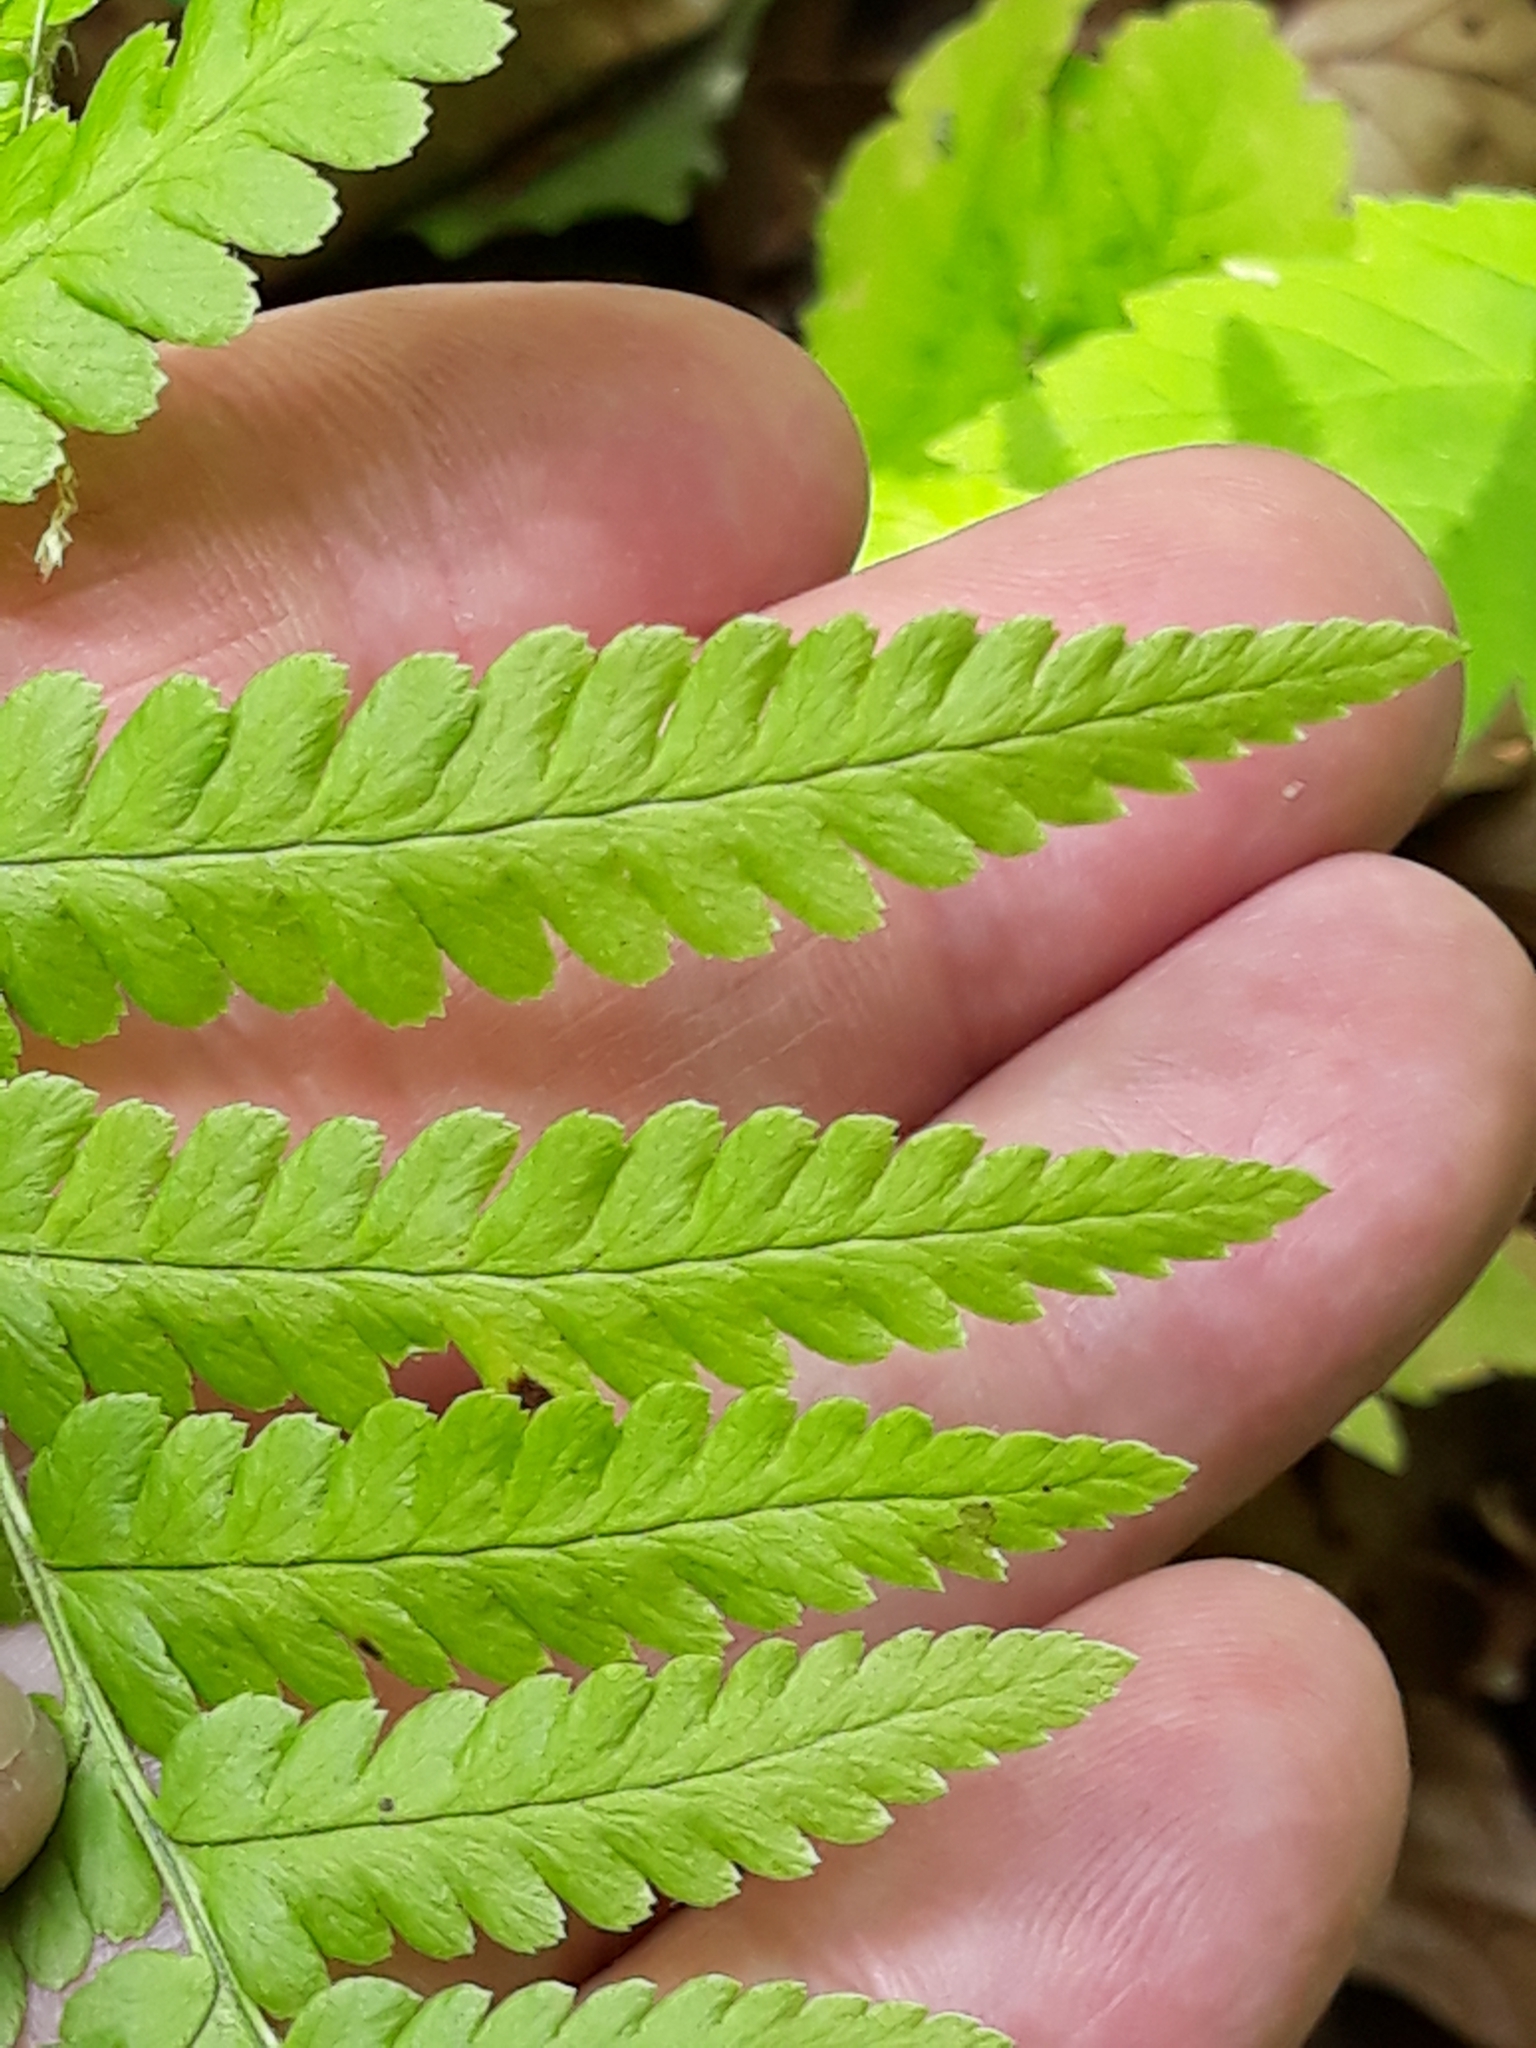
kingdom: Plantae
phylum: Tracheophyta
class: Polypodiopsida
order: Polypodiales
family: Dryopteridaceae
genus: Dryopteris
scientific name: Dryopteris filix-mas
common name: Male fern
